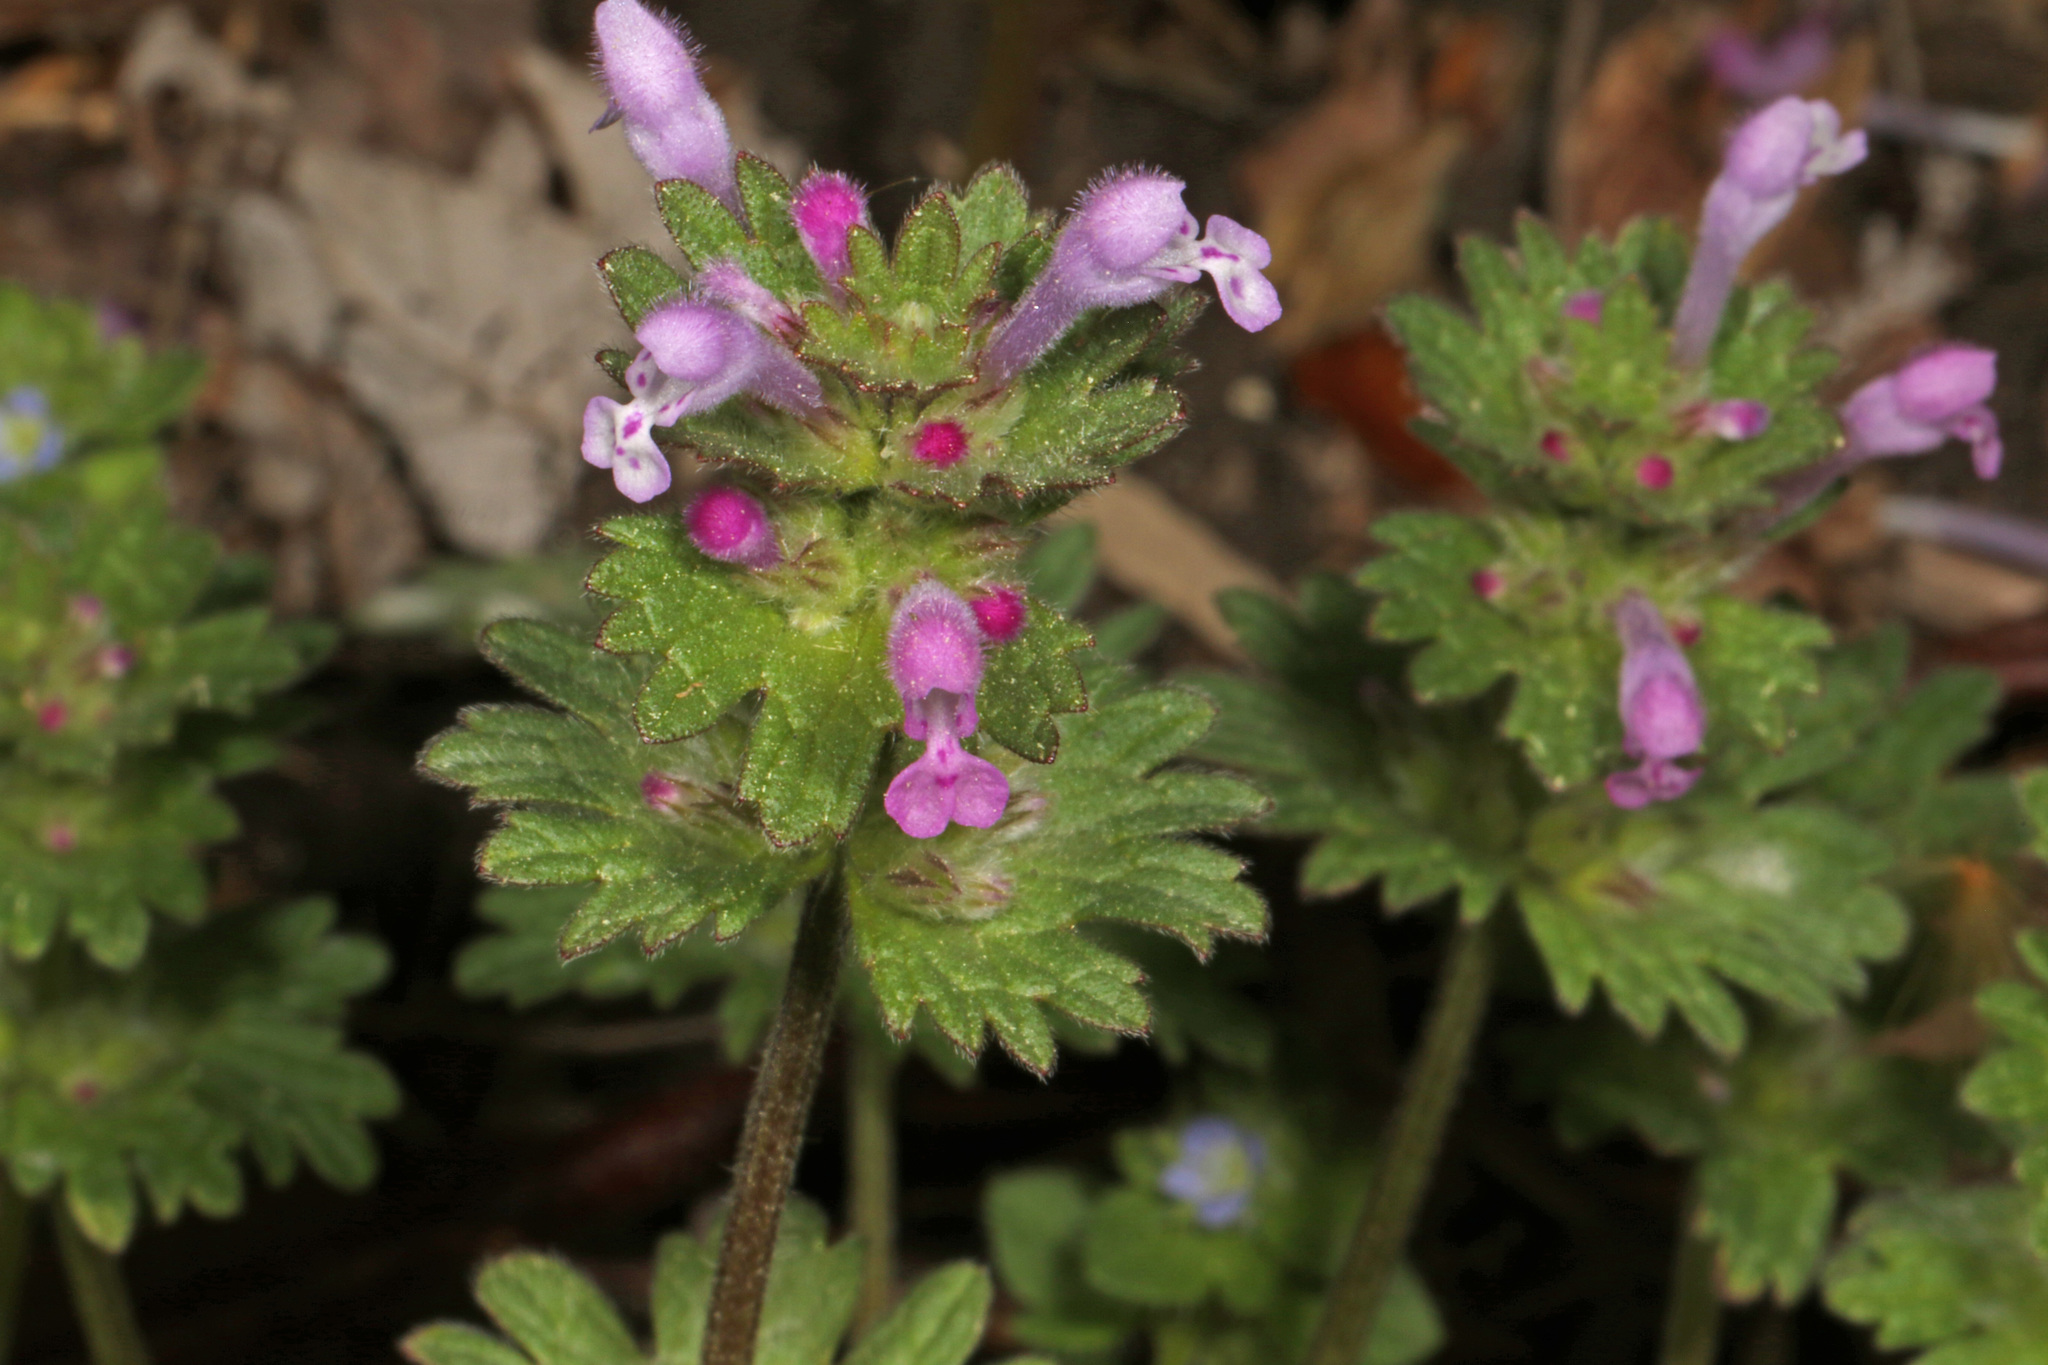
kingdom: Plantae
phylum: Tracheophyta
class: Magnoliopsida
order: Lamiales
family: Lamiaceae
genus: Lamium
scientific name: Lamium amplexicaule
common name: Henbit dead-nettle
